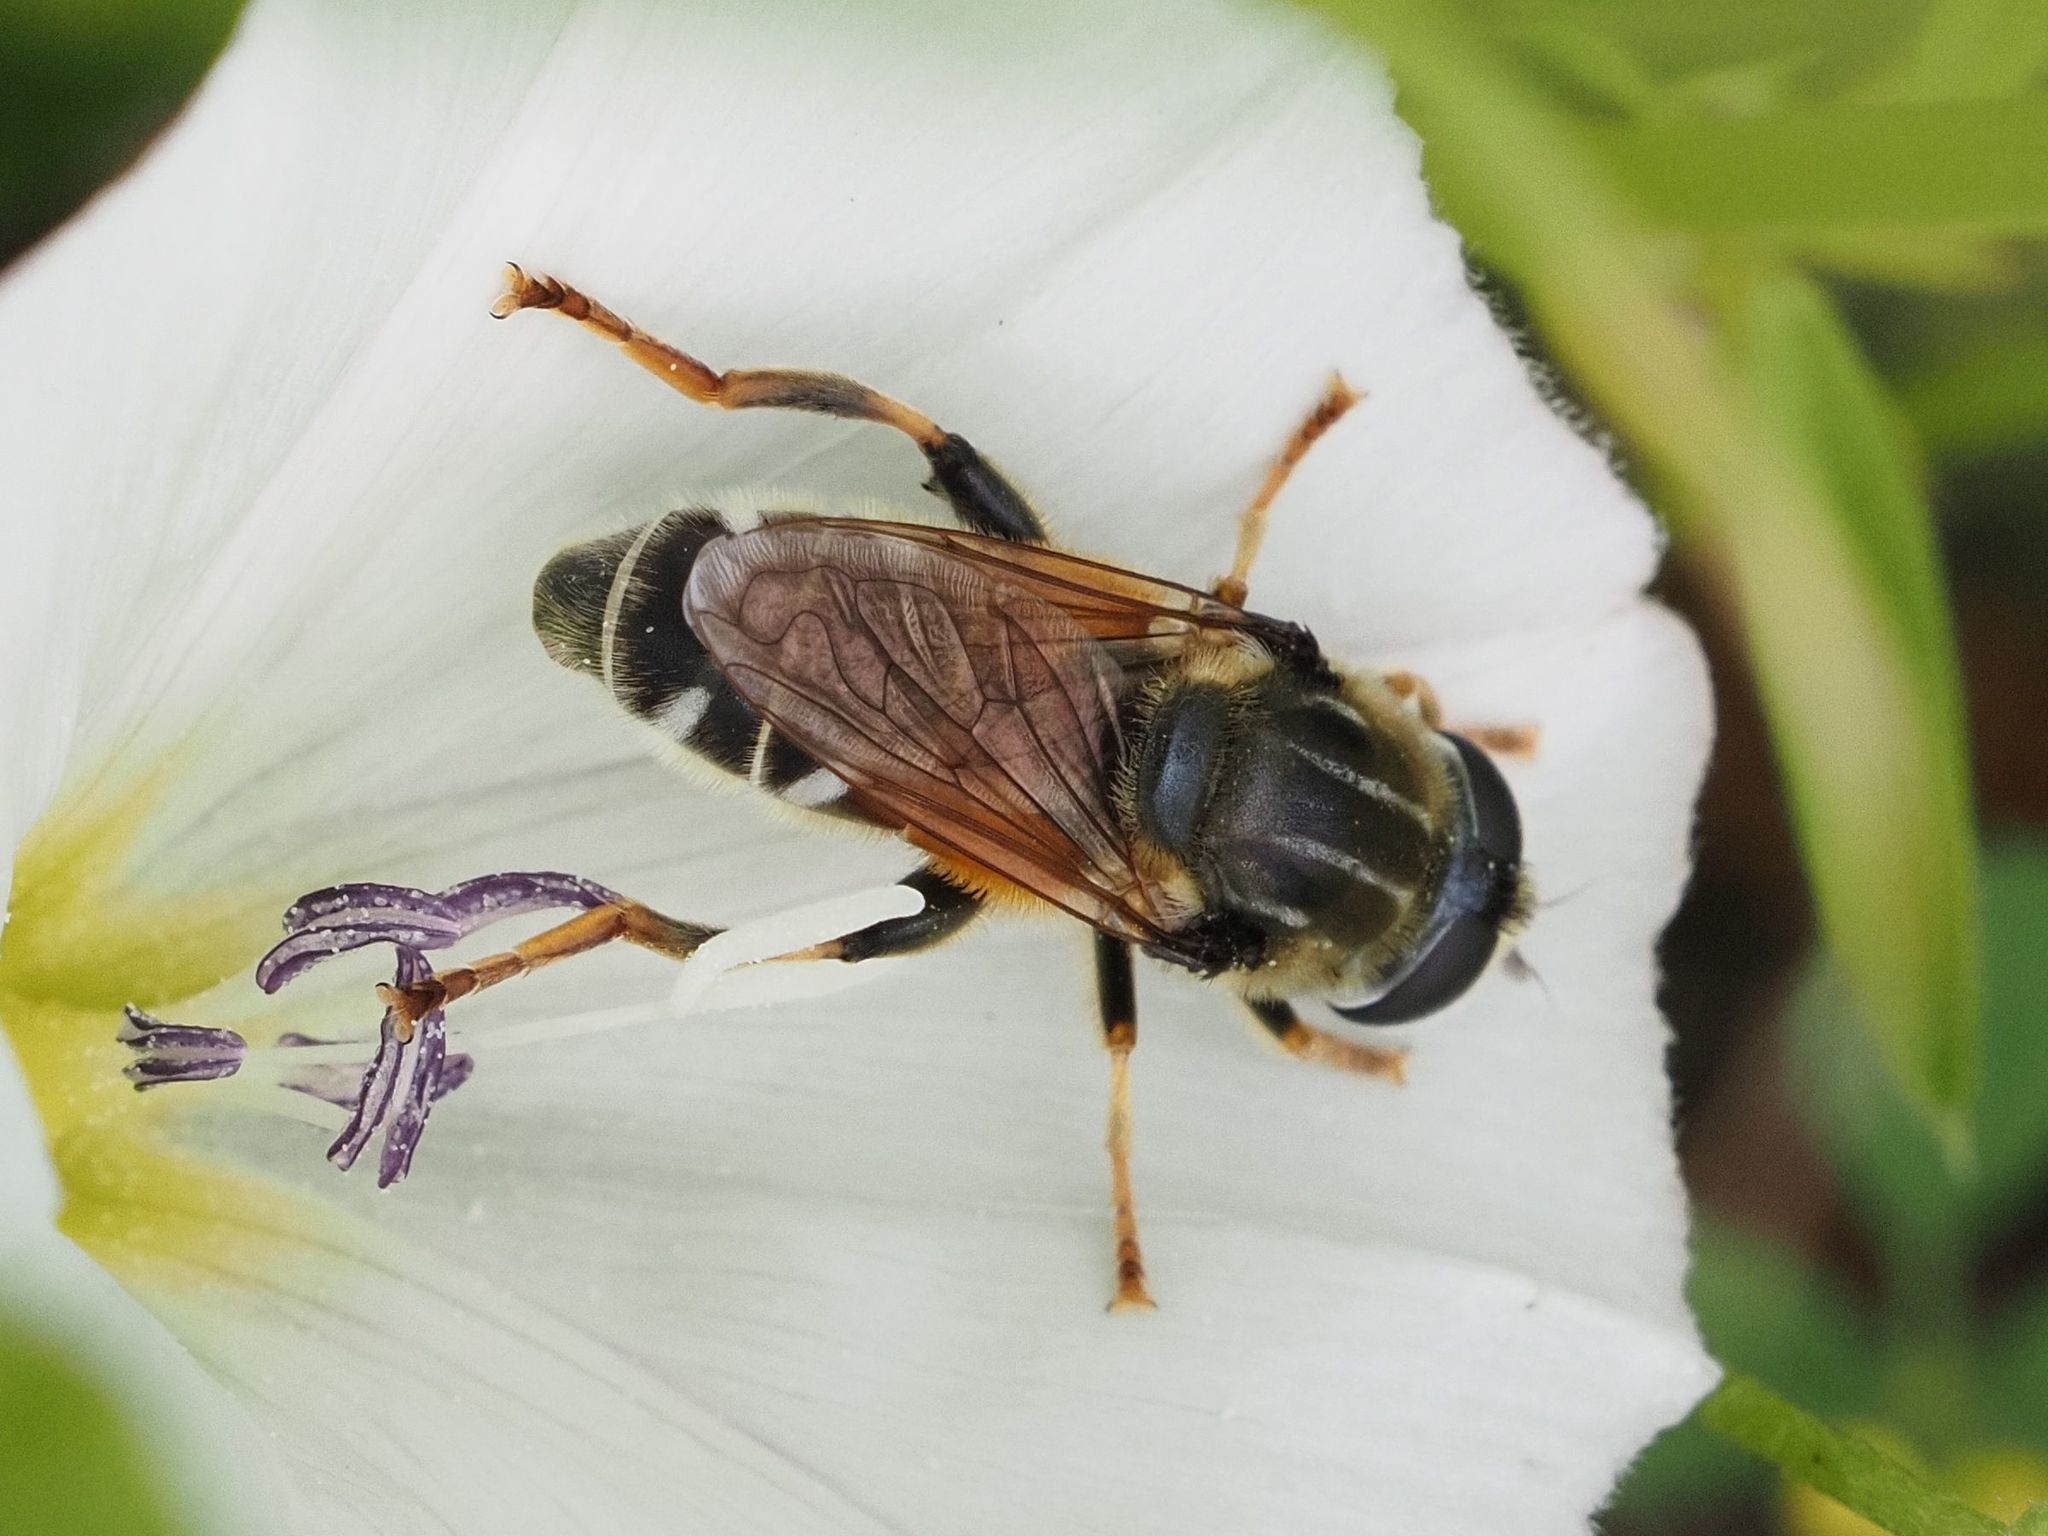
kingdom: Animalia
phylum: Arthropoda
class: Insecta
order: Diptera
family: Syrphidae
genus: Merodon
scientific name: Merodon avidus
